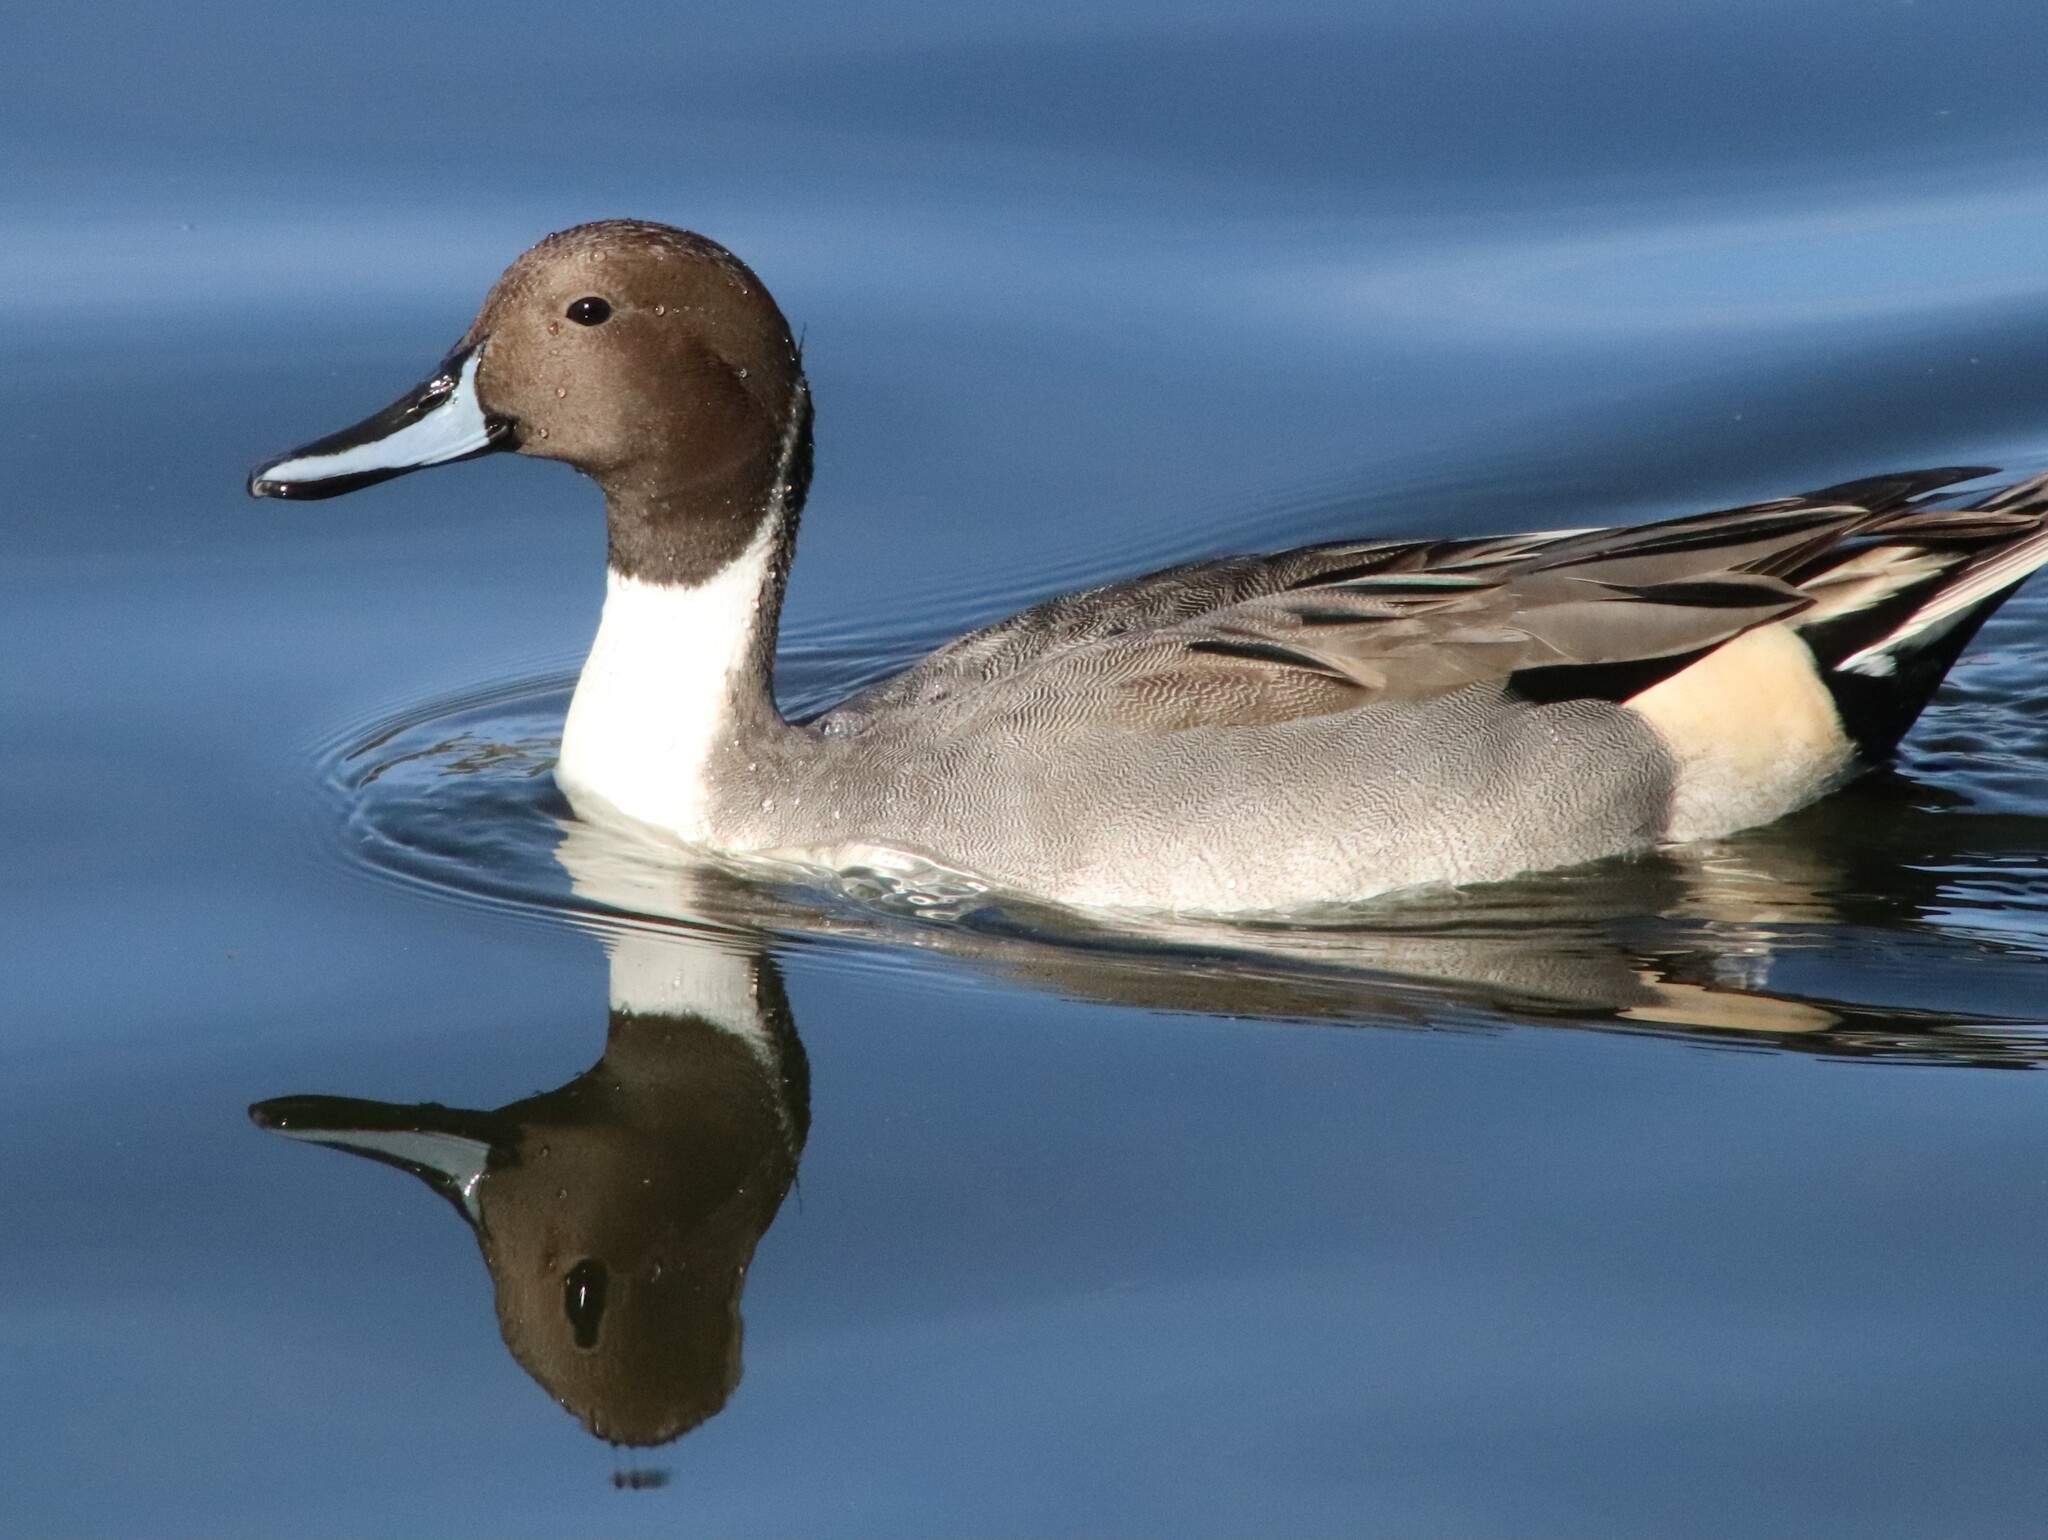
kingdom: Animalia
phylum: Chordata
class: Aves
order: Anseriformes
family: Anatidae
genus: Anas
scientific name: Anas acuta
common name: Northern pintail
